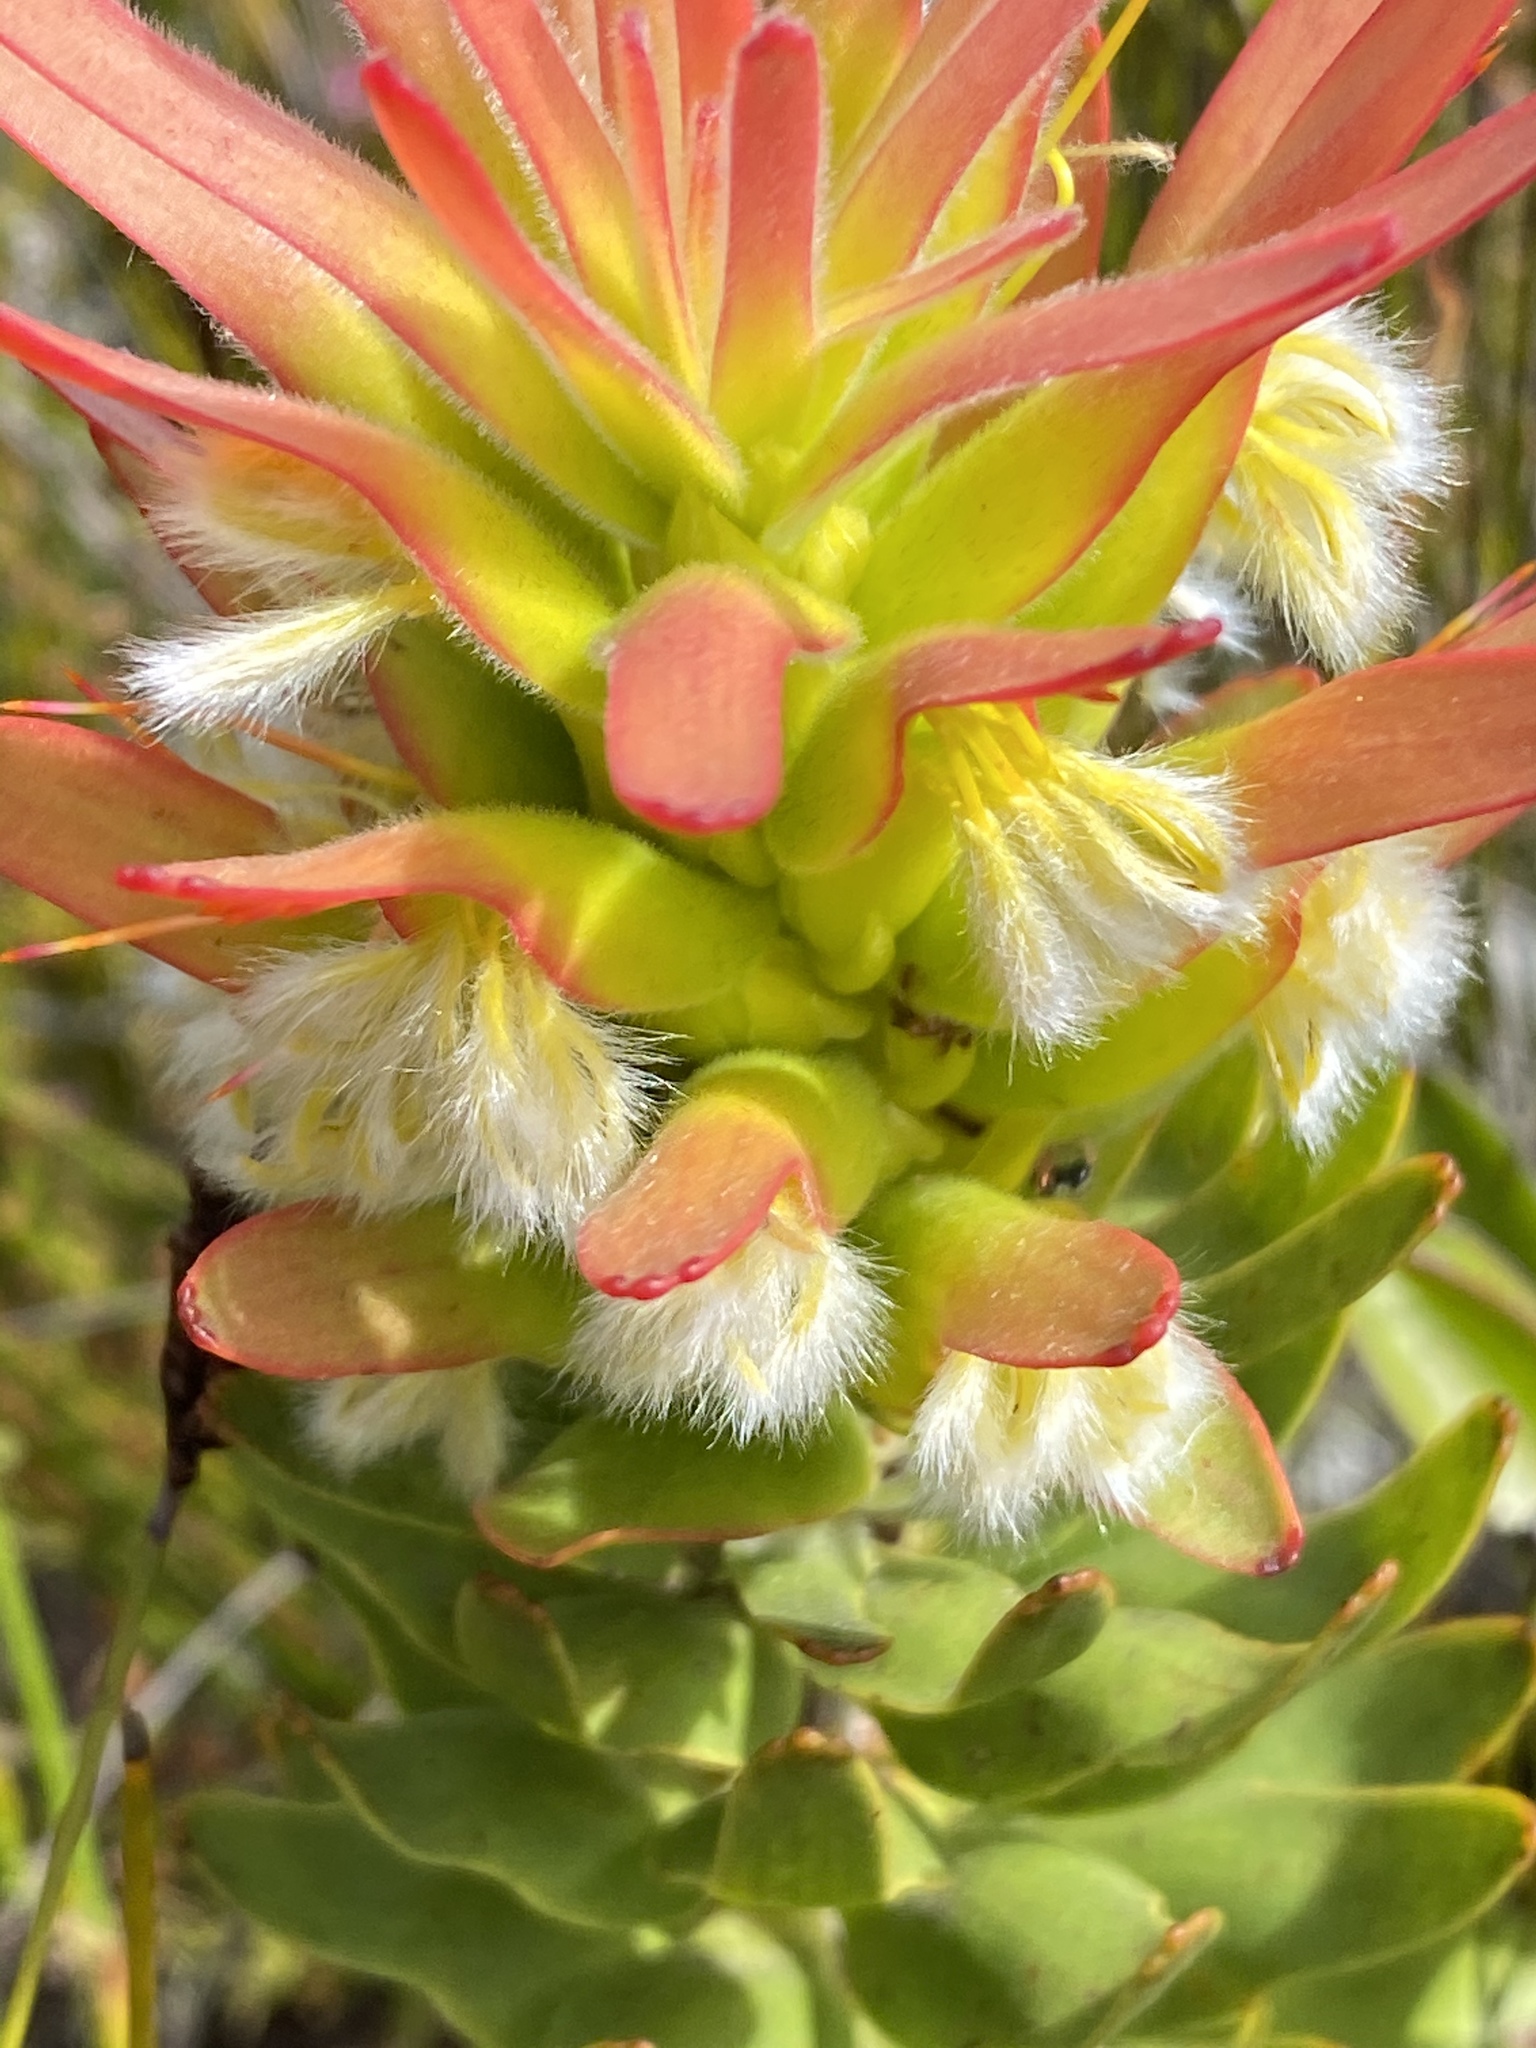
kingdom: Plantae
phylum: Tracheophyta
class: Magnoliopsida
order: Proteales
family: Proteaceae
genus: Mimetes
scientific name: Mimetes cucullatus
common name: Common pagoda
